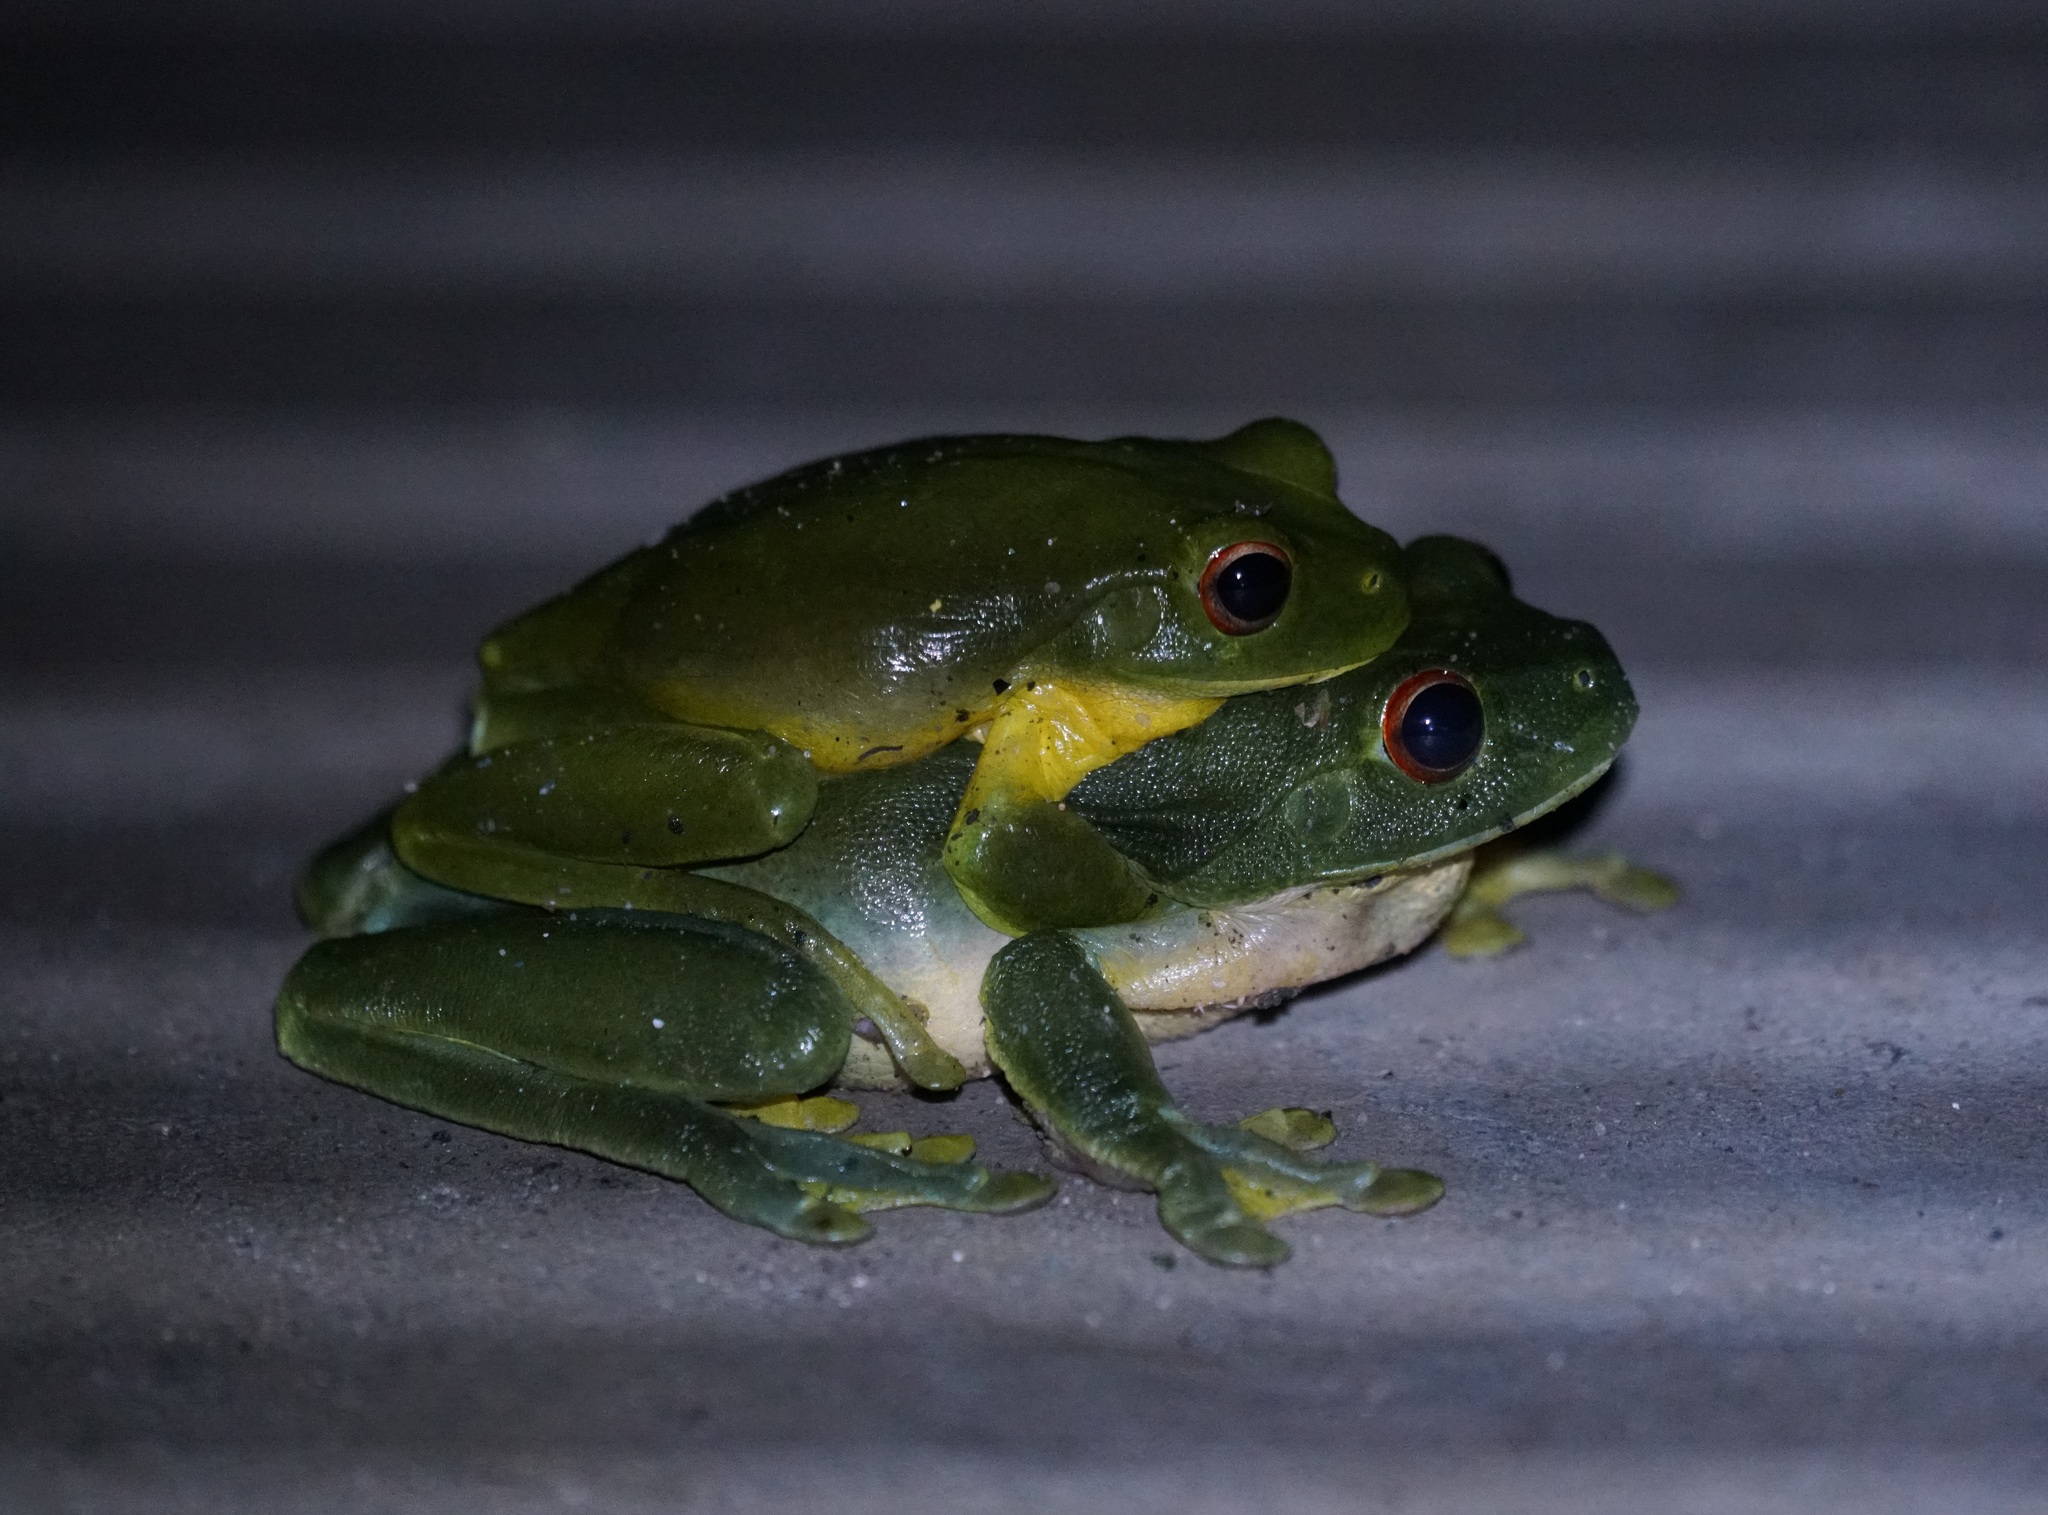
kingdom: Animalia
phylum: Chordata
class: Amphibia
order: Anura
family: Pelodryadidae
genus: Ranoidea
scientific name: Ranoidea chloris
